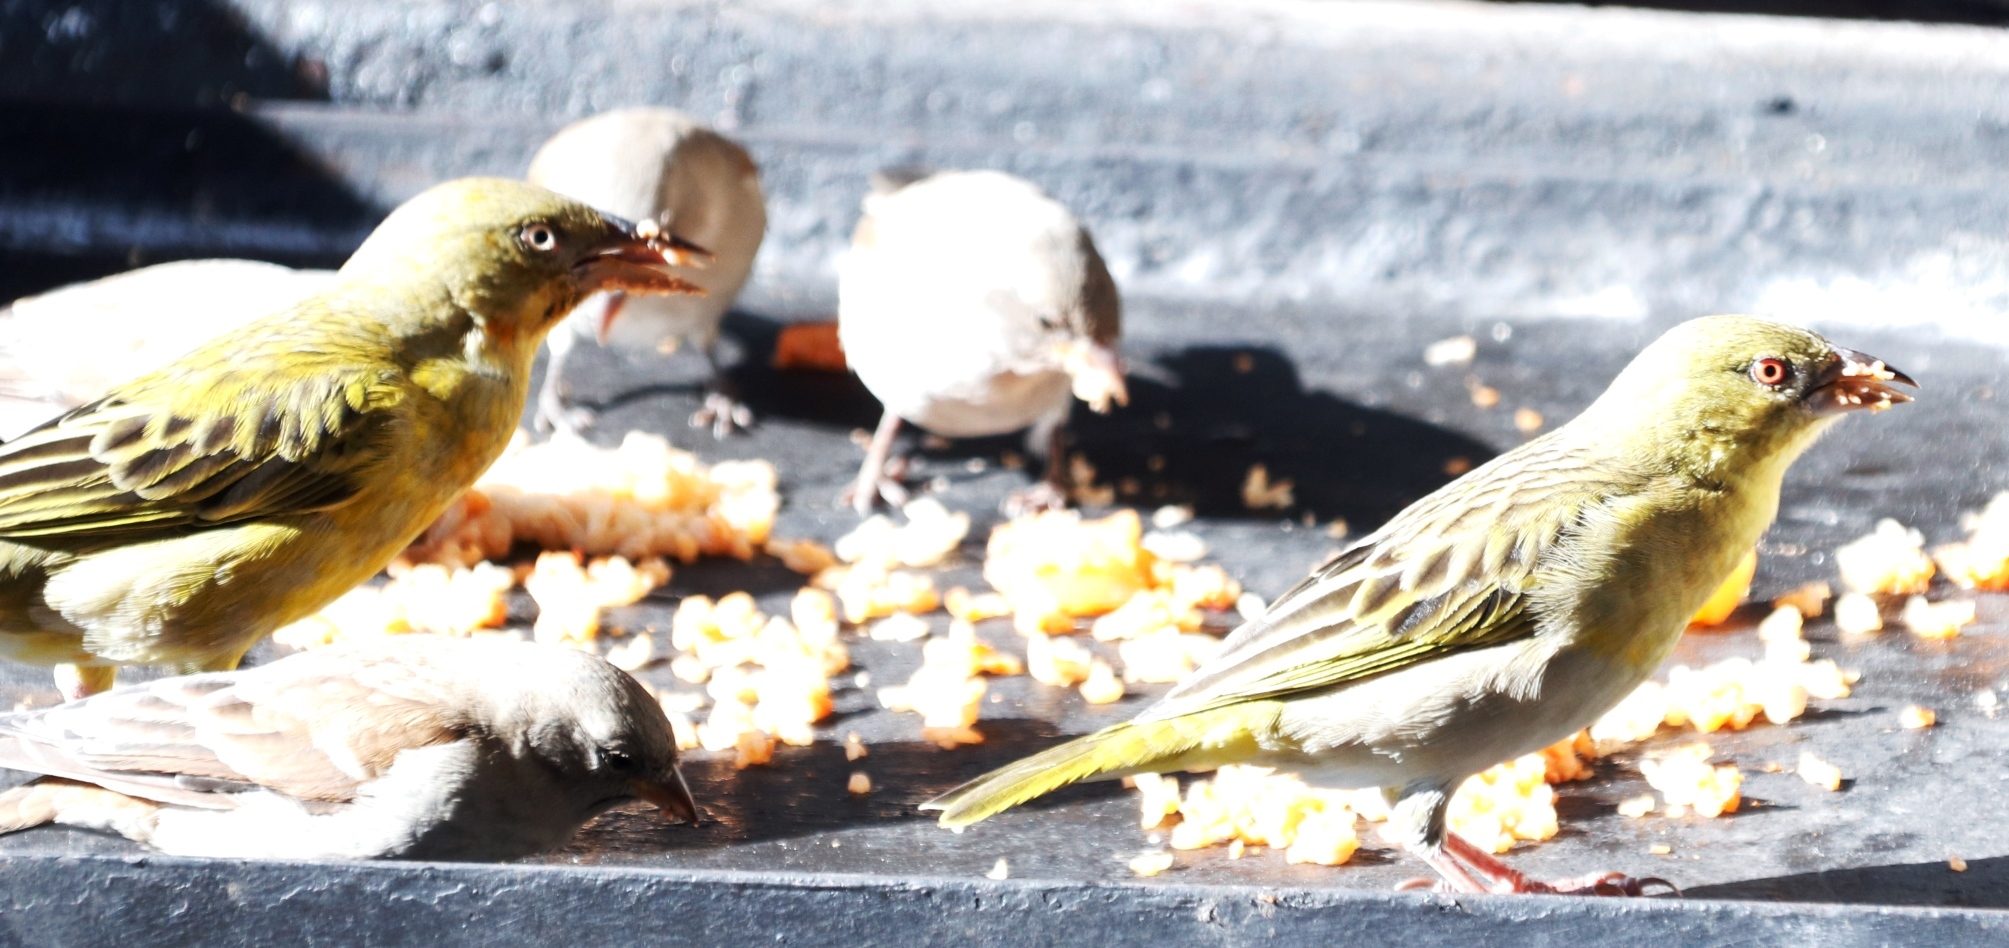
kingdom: Animalia
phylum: Chordata
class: Aves
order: Passeriformes
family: Ploceidae
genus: Ploceus
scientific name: Ploceus velatus
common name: Southern masked weaver
